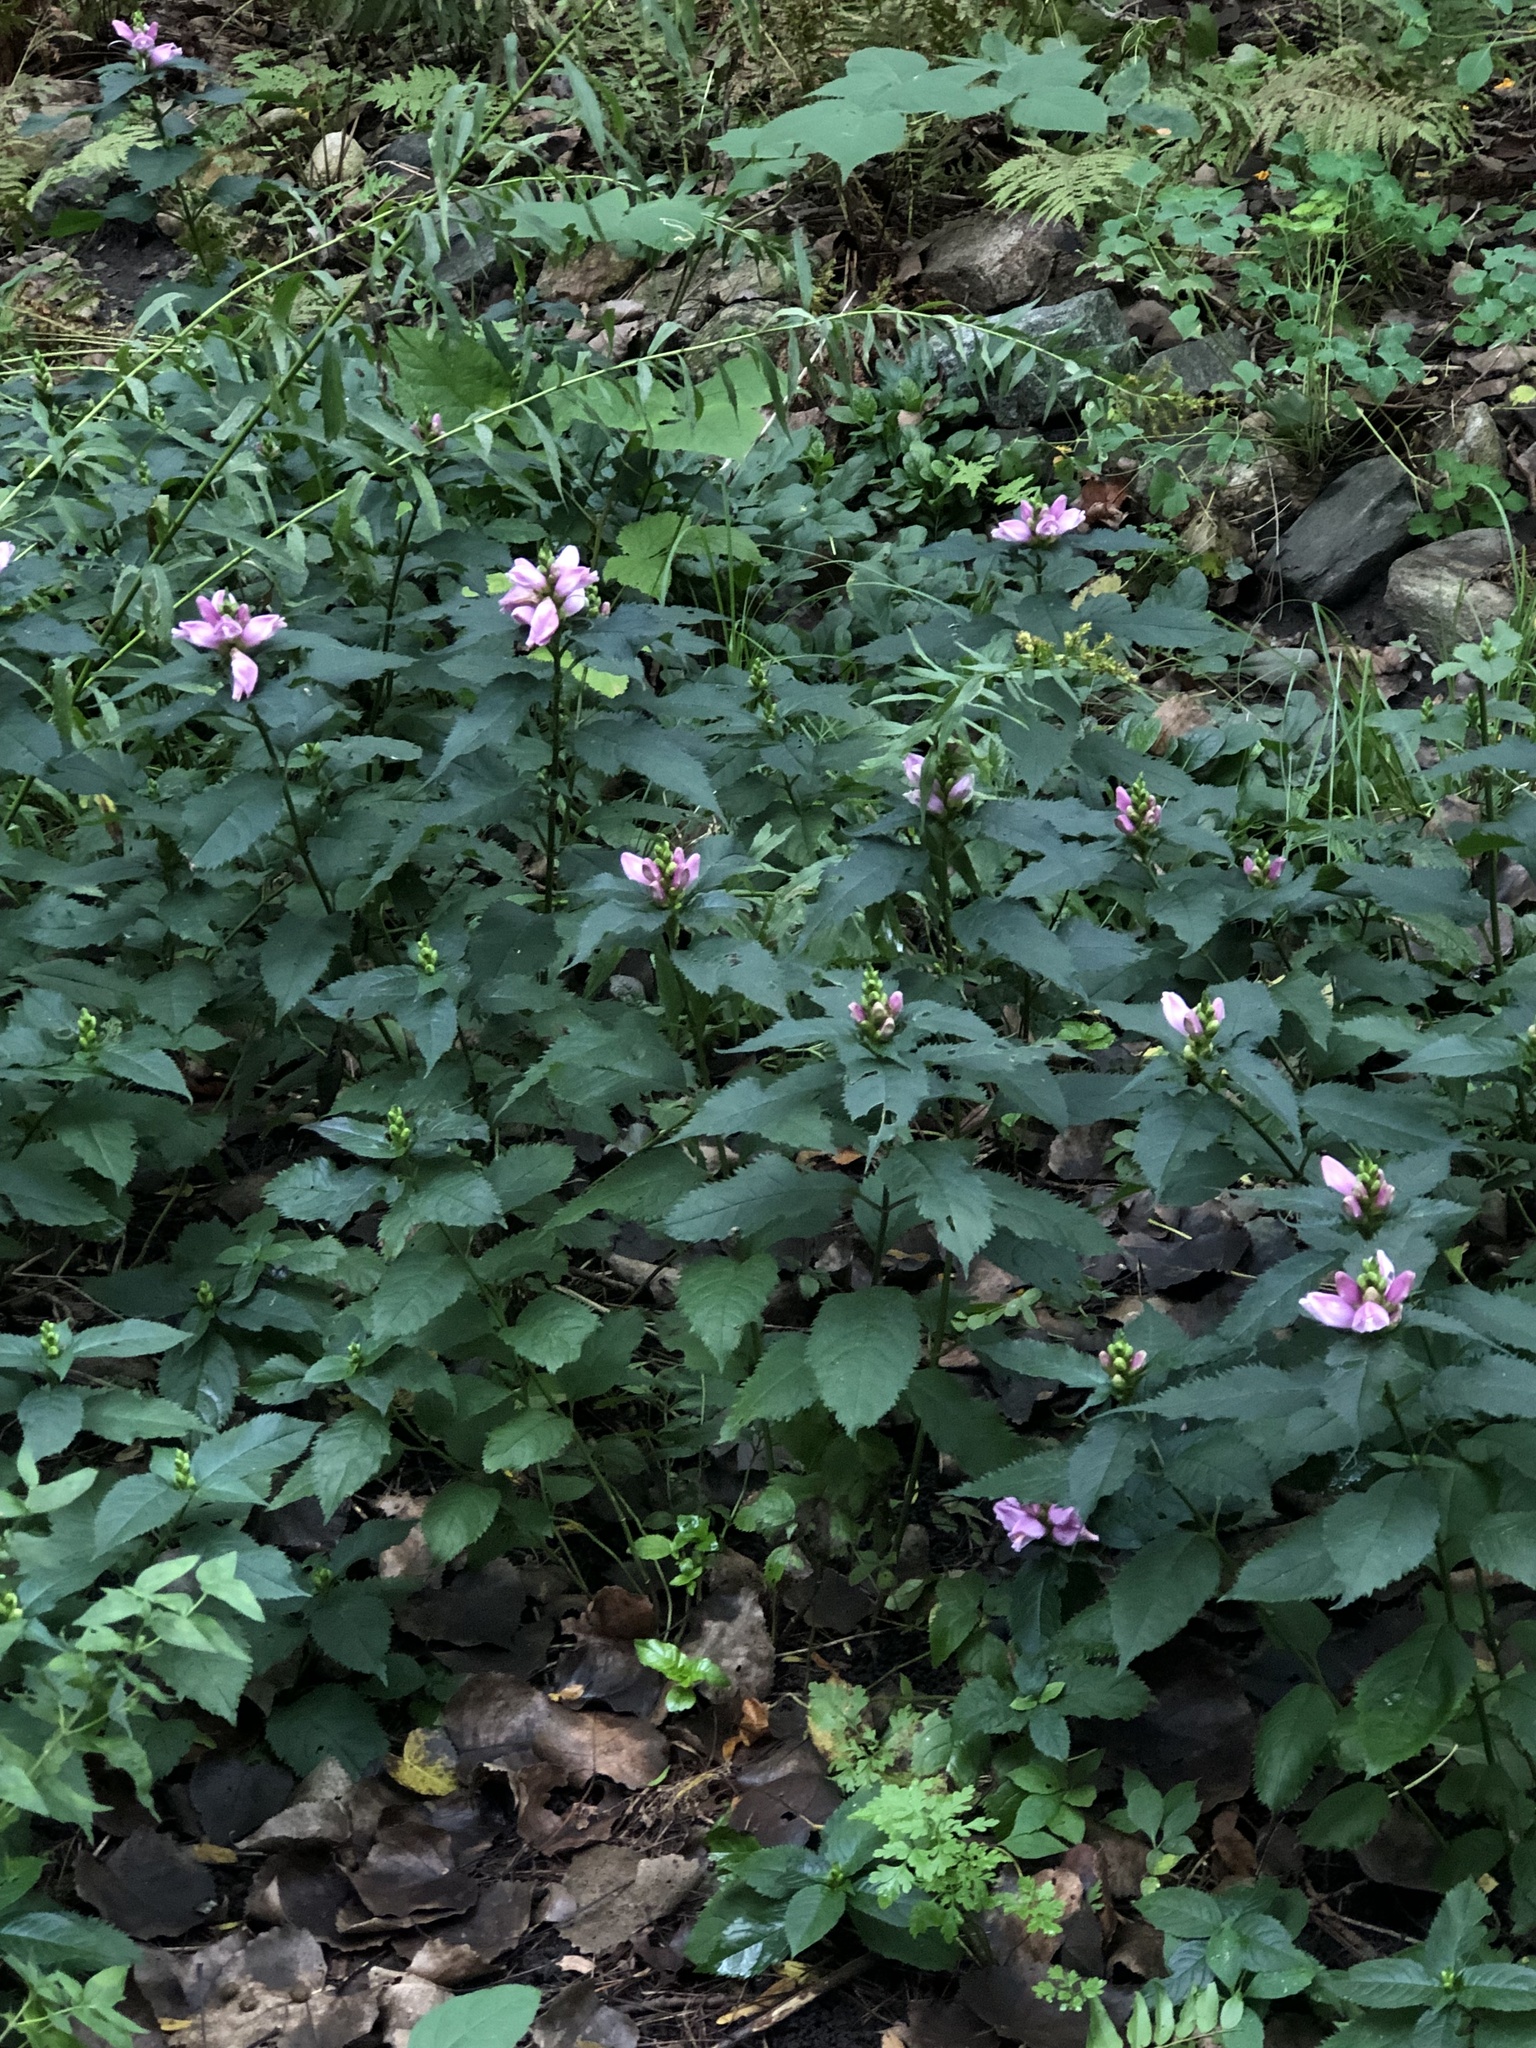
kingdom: Plantae
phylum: Tracheophyta
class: Magnoliopsida
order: Lamiales
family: Plantaginaceae
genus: Chelone
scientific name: Chelone lyonii
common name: Pink turtlehead
